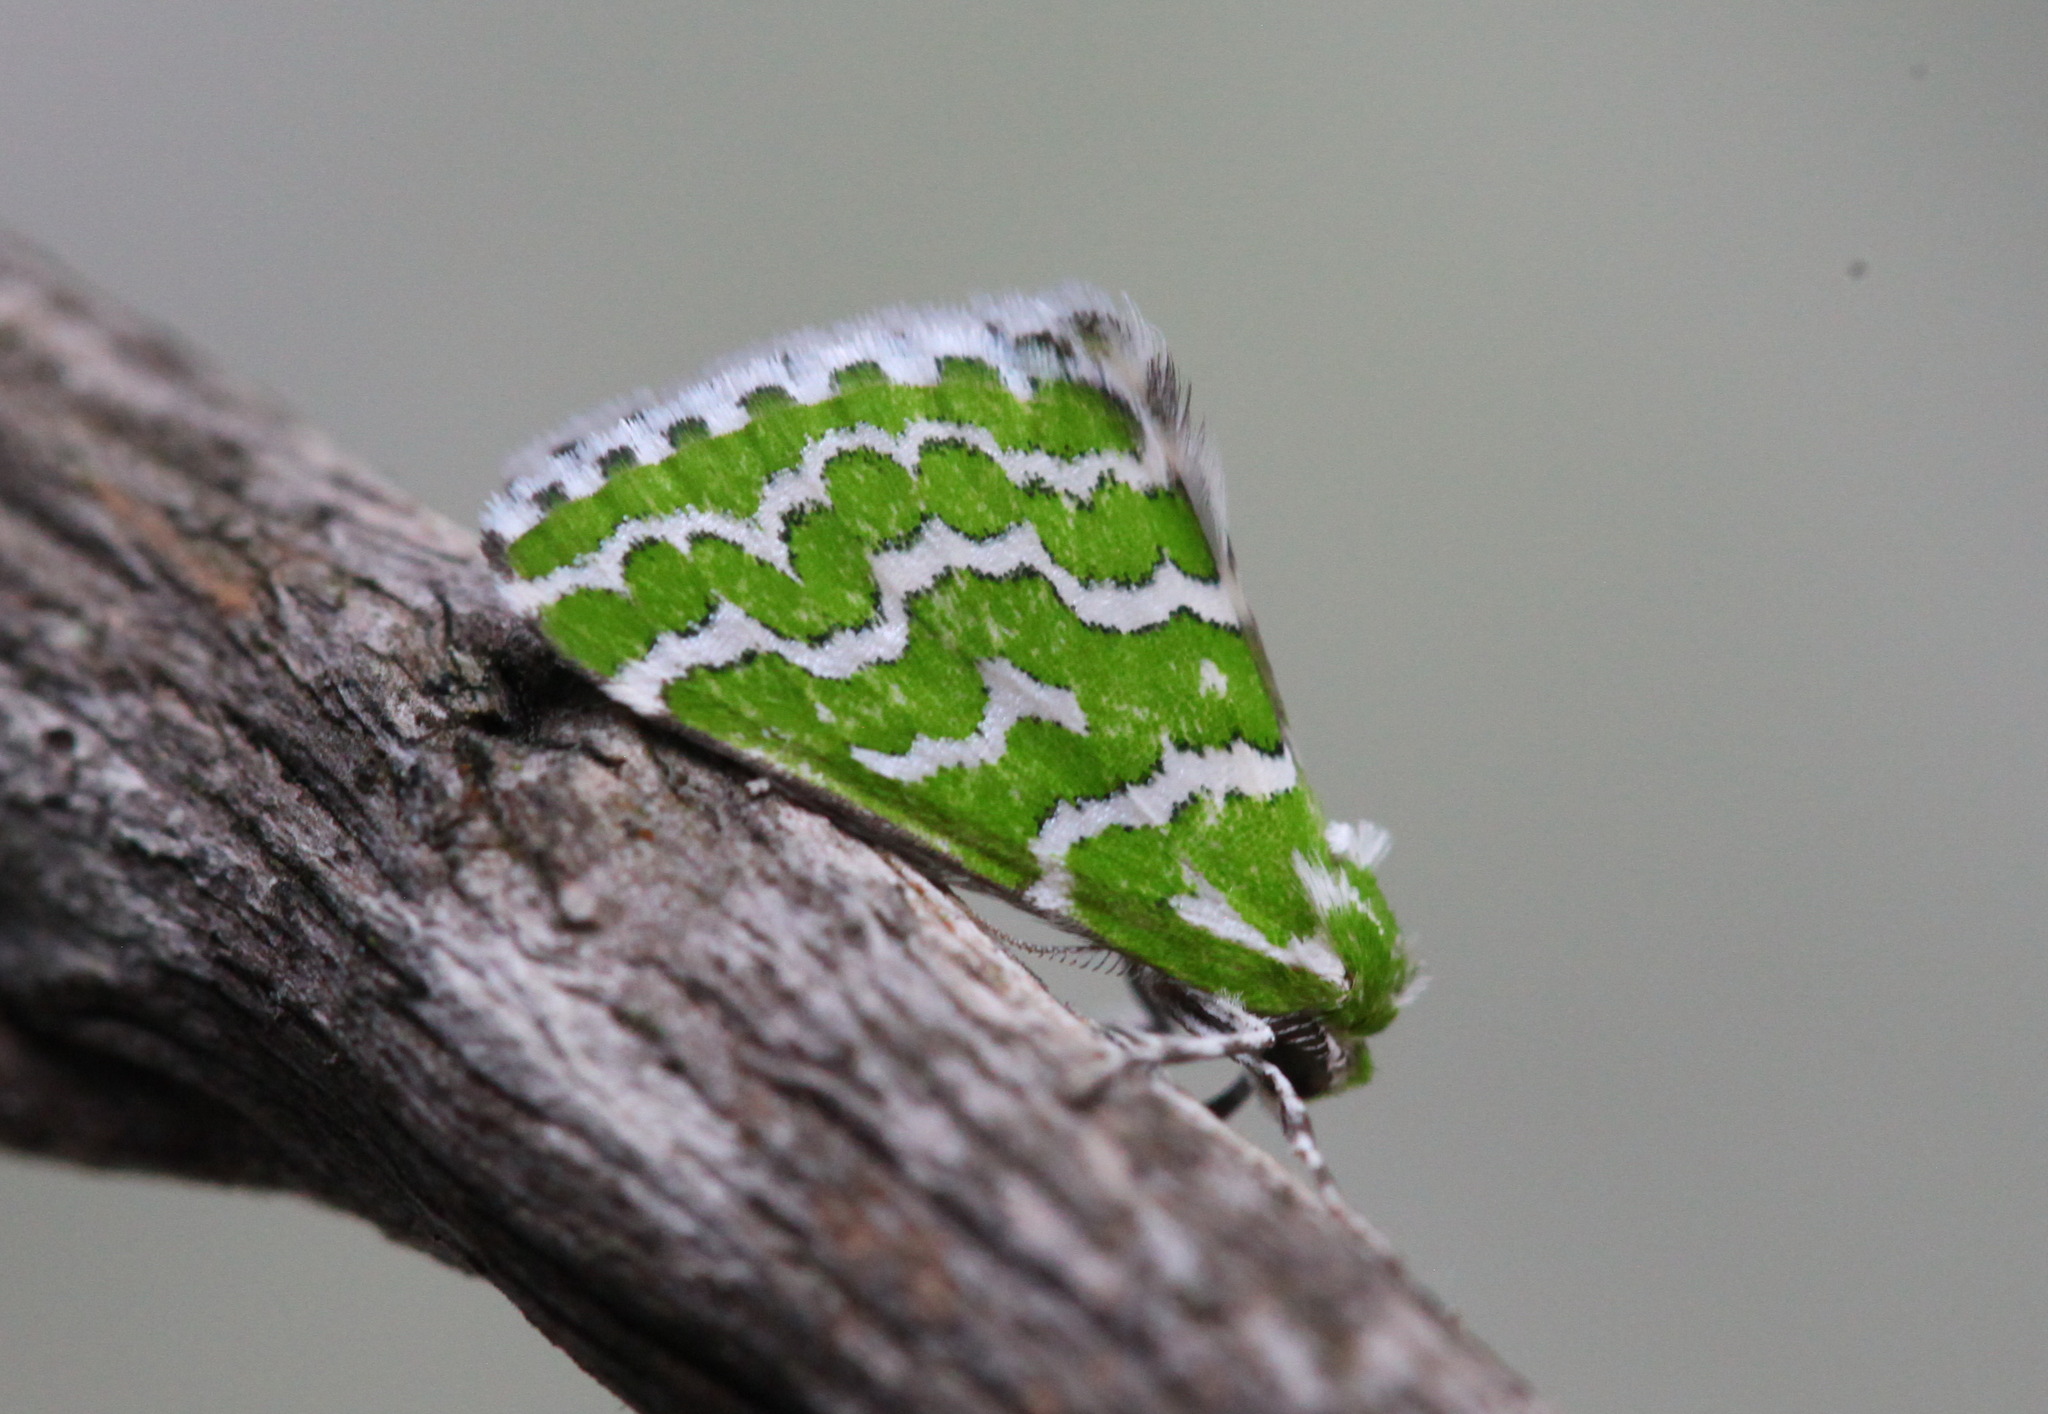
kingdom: Animalia
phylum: Arthropoda
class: Insecta
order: Lepidoptera
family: Geometridae
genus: Argyrographa
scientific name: Argyrographa moderata
